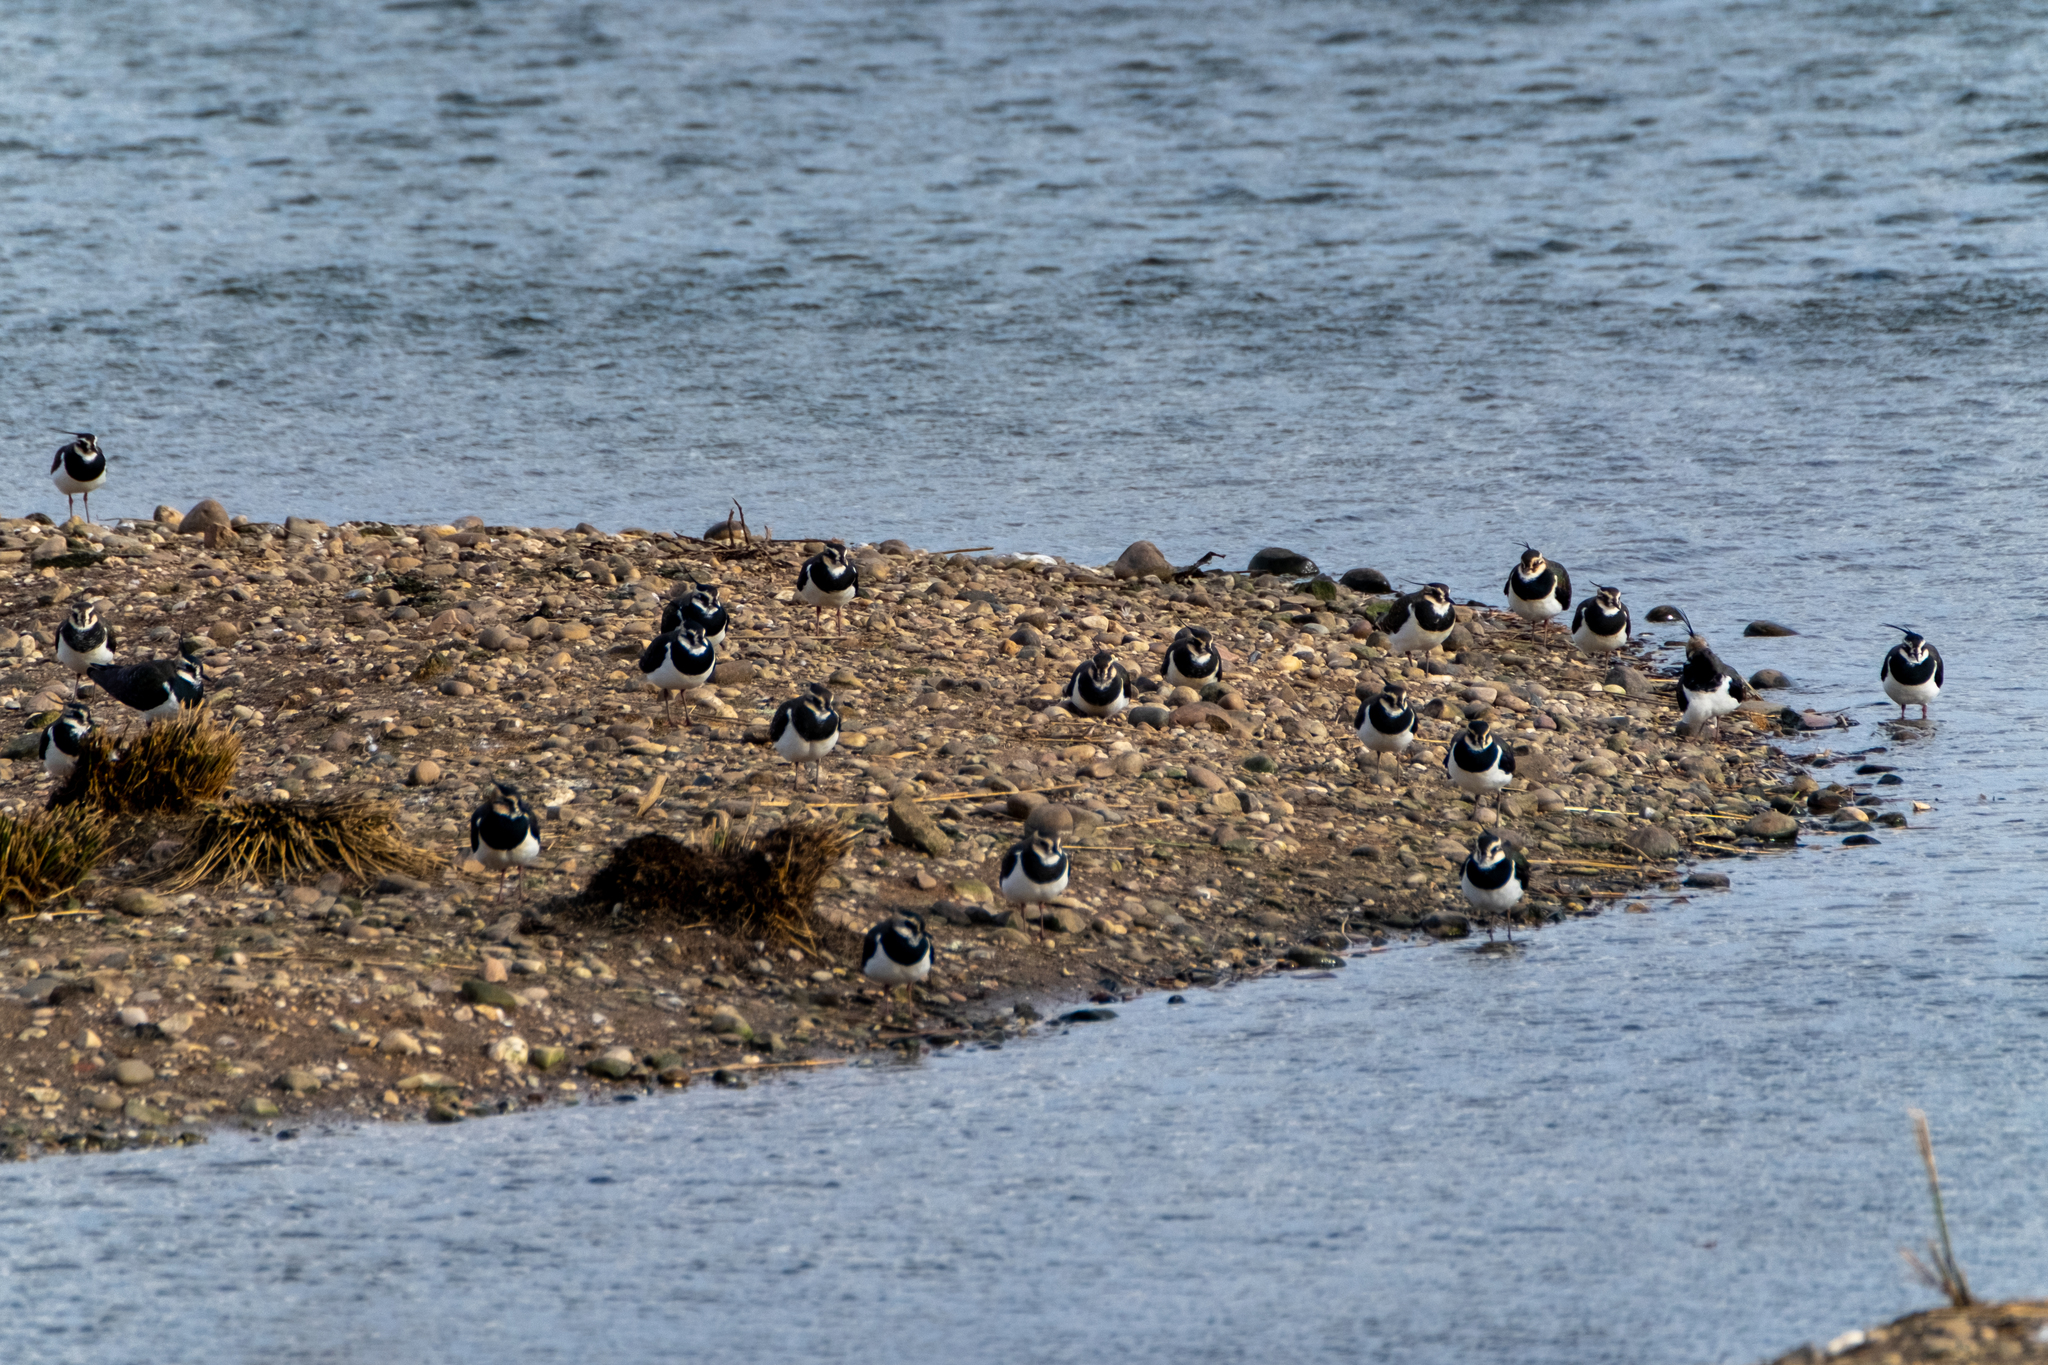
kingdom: Animalia
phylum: Chordata
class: Aves
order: Charadriiformes
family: Charadriidae
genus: Vanellus
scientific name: Vanellus vanellus
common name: Northern lapwing
